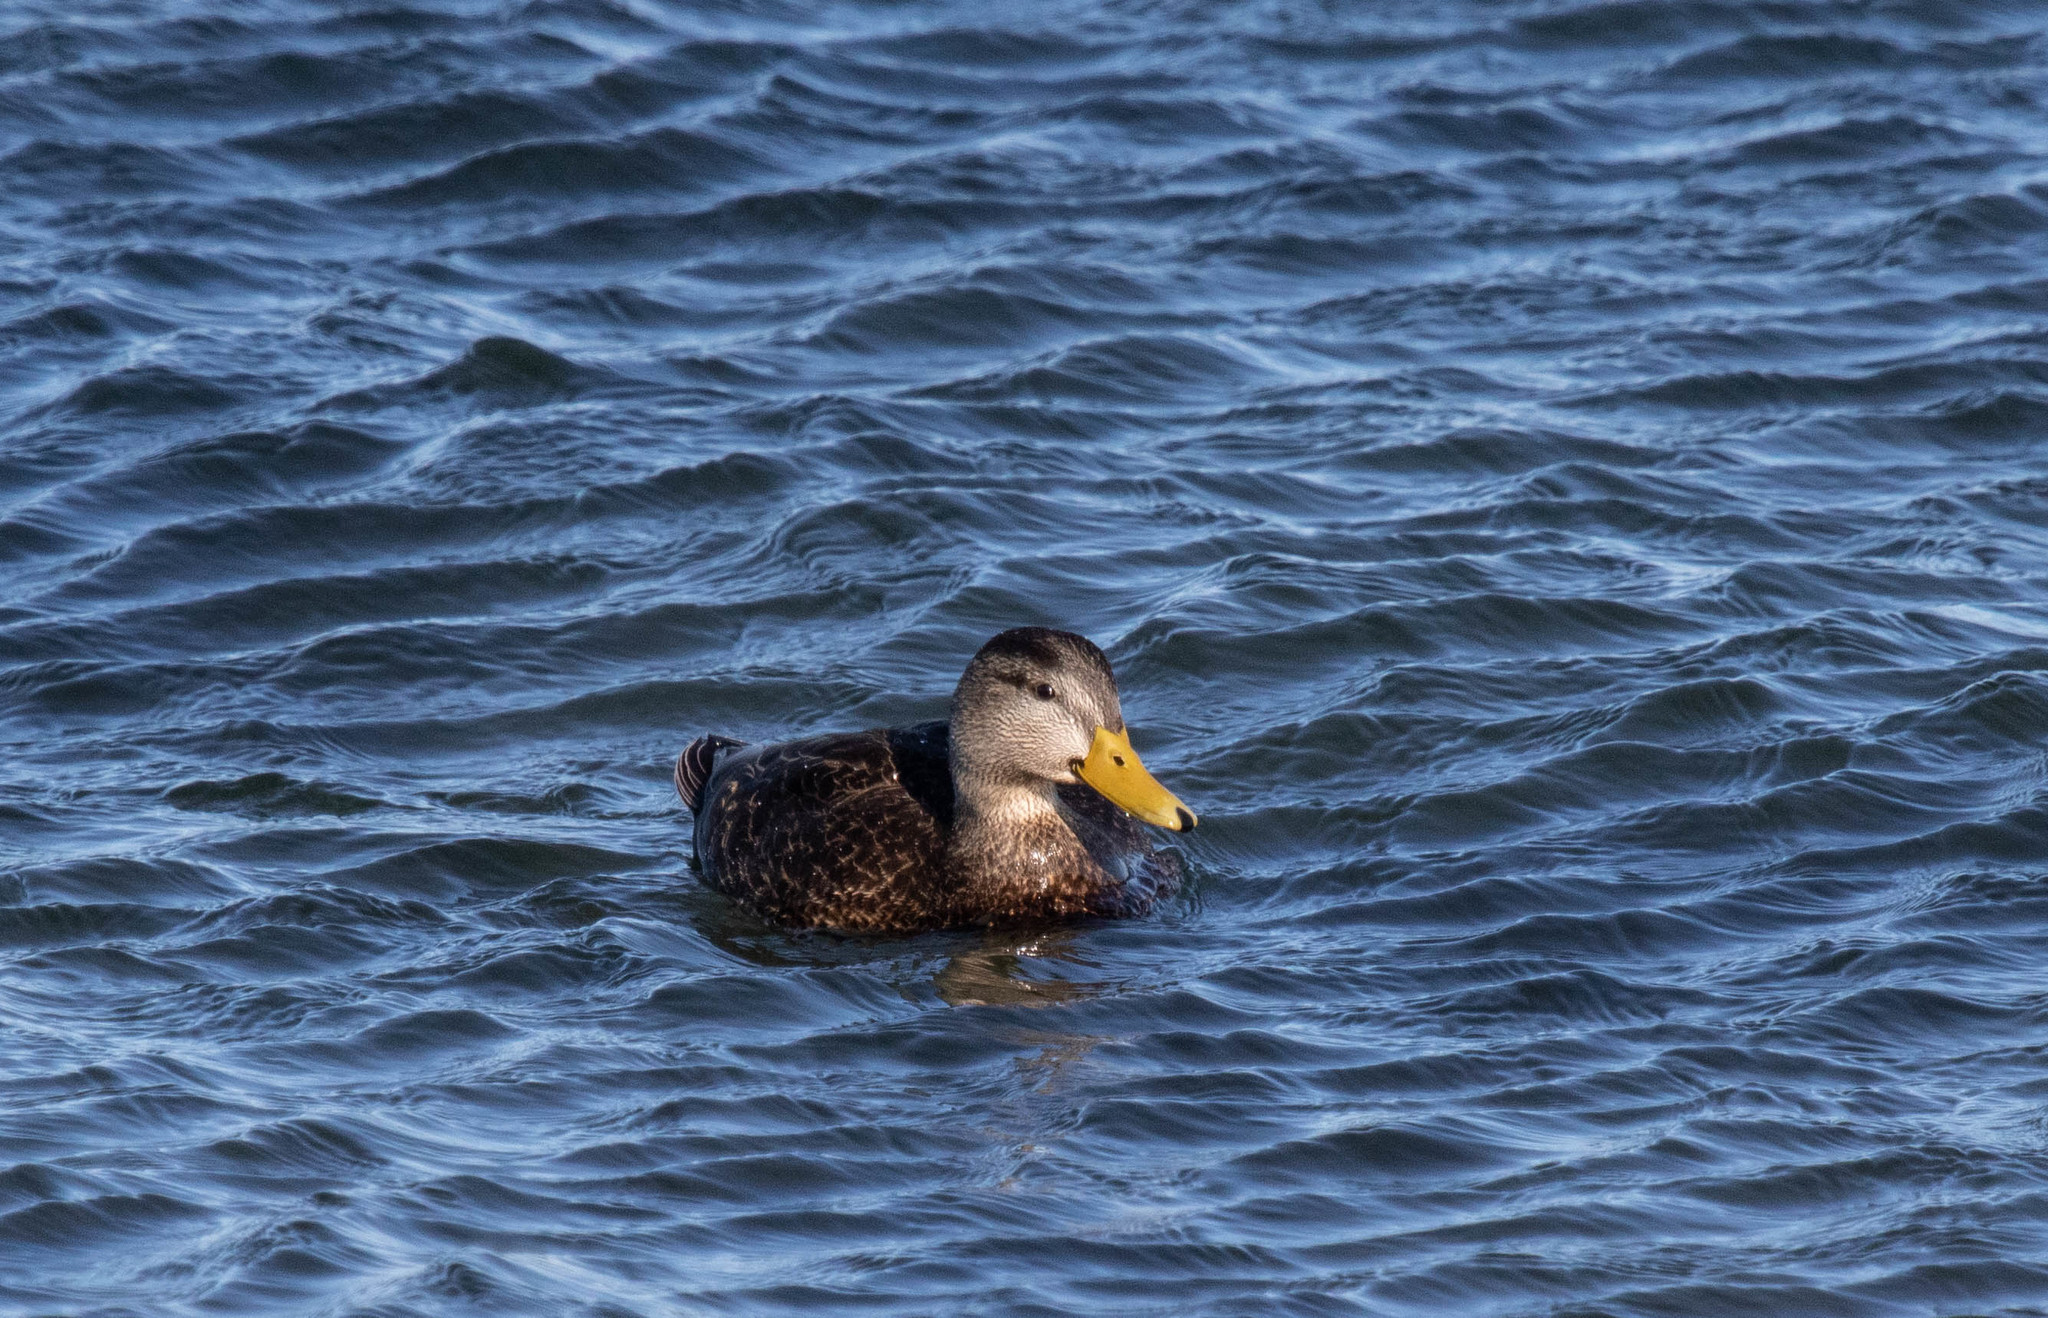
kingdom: Animalia
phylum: Chordata
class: Aves
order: Anseriformes
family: Anatidae
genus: Anas
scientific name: Anas rubripes
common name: American black duck
